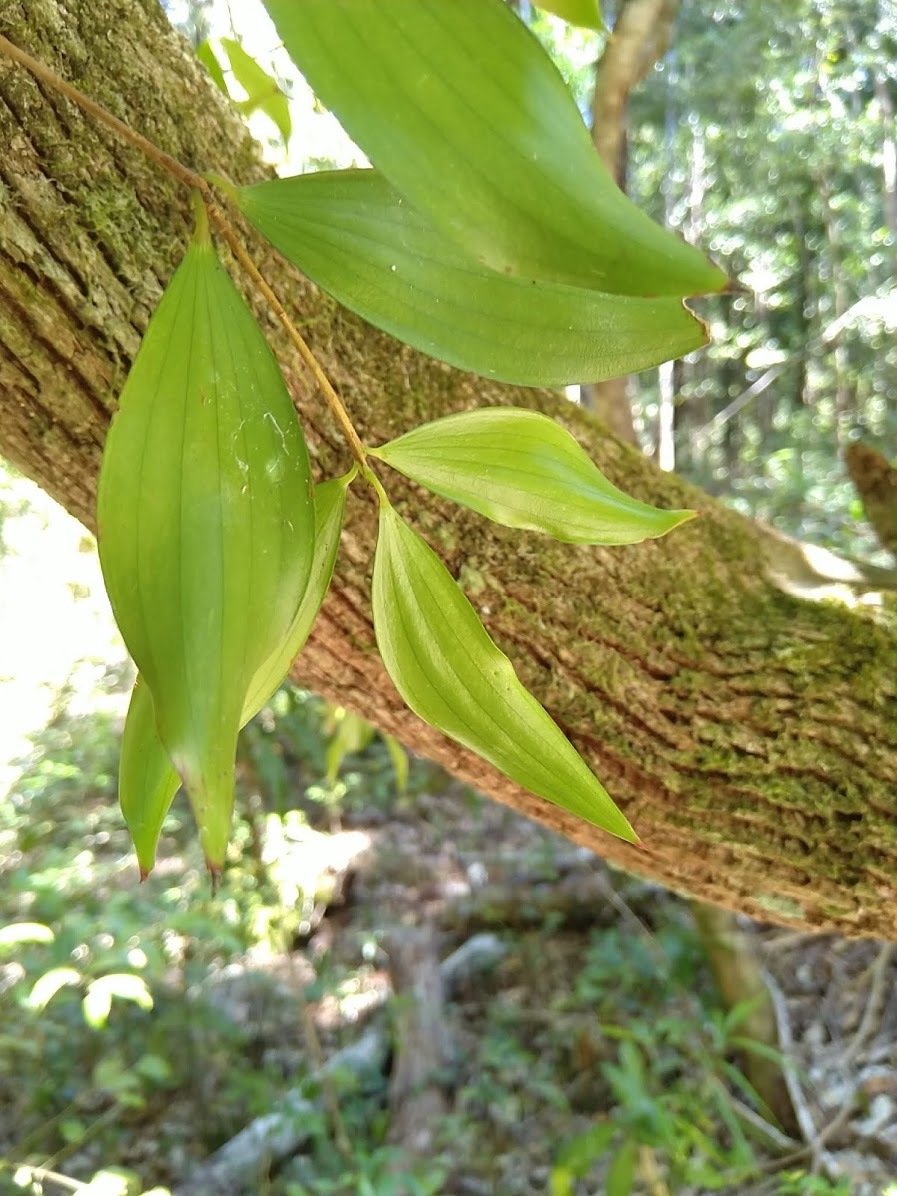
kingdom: Plantae
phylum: Tracheophyta
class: Magnoliopsida
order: Ericales
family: Ericaceae
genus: Trochocarpa
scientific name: Trochocarpa laurina
